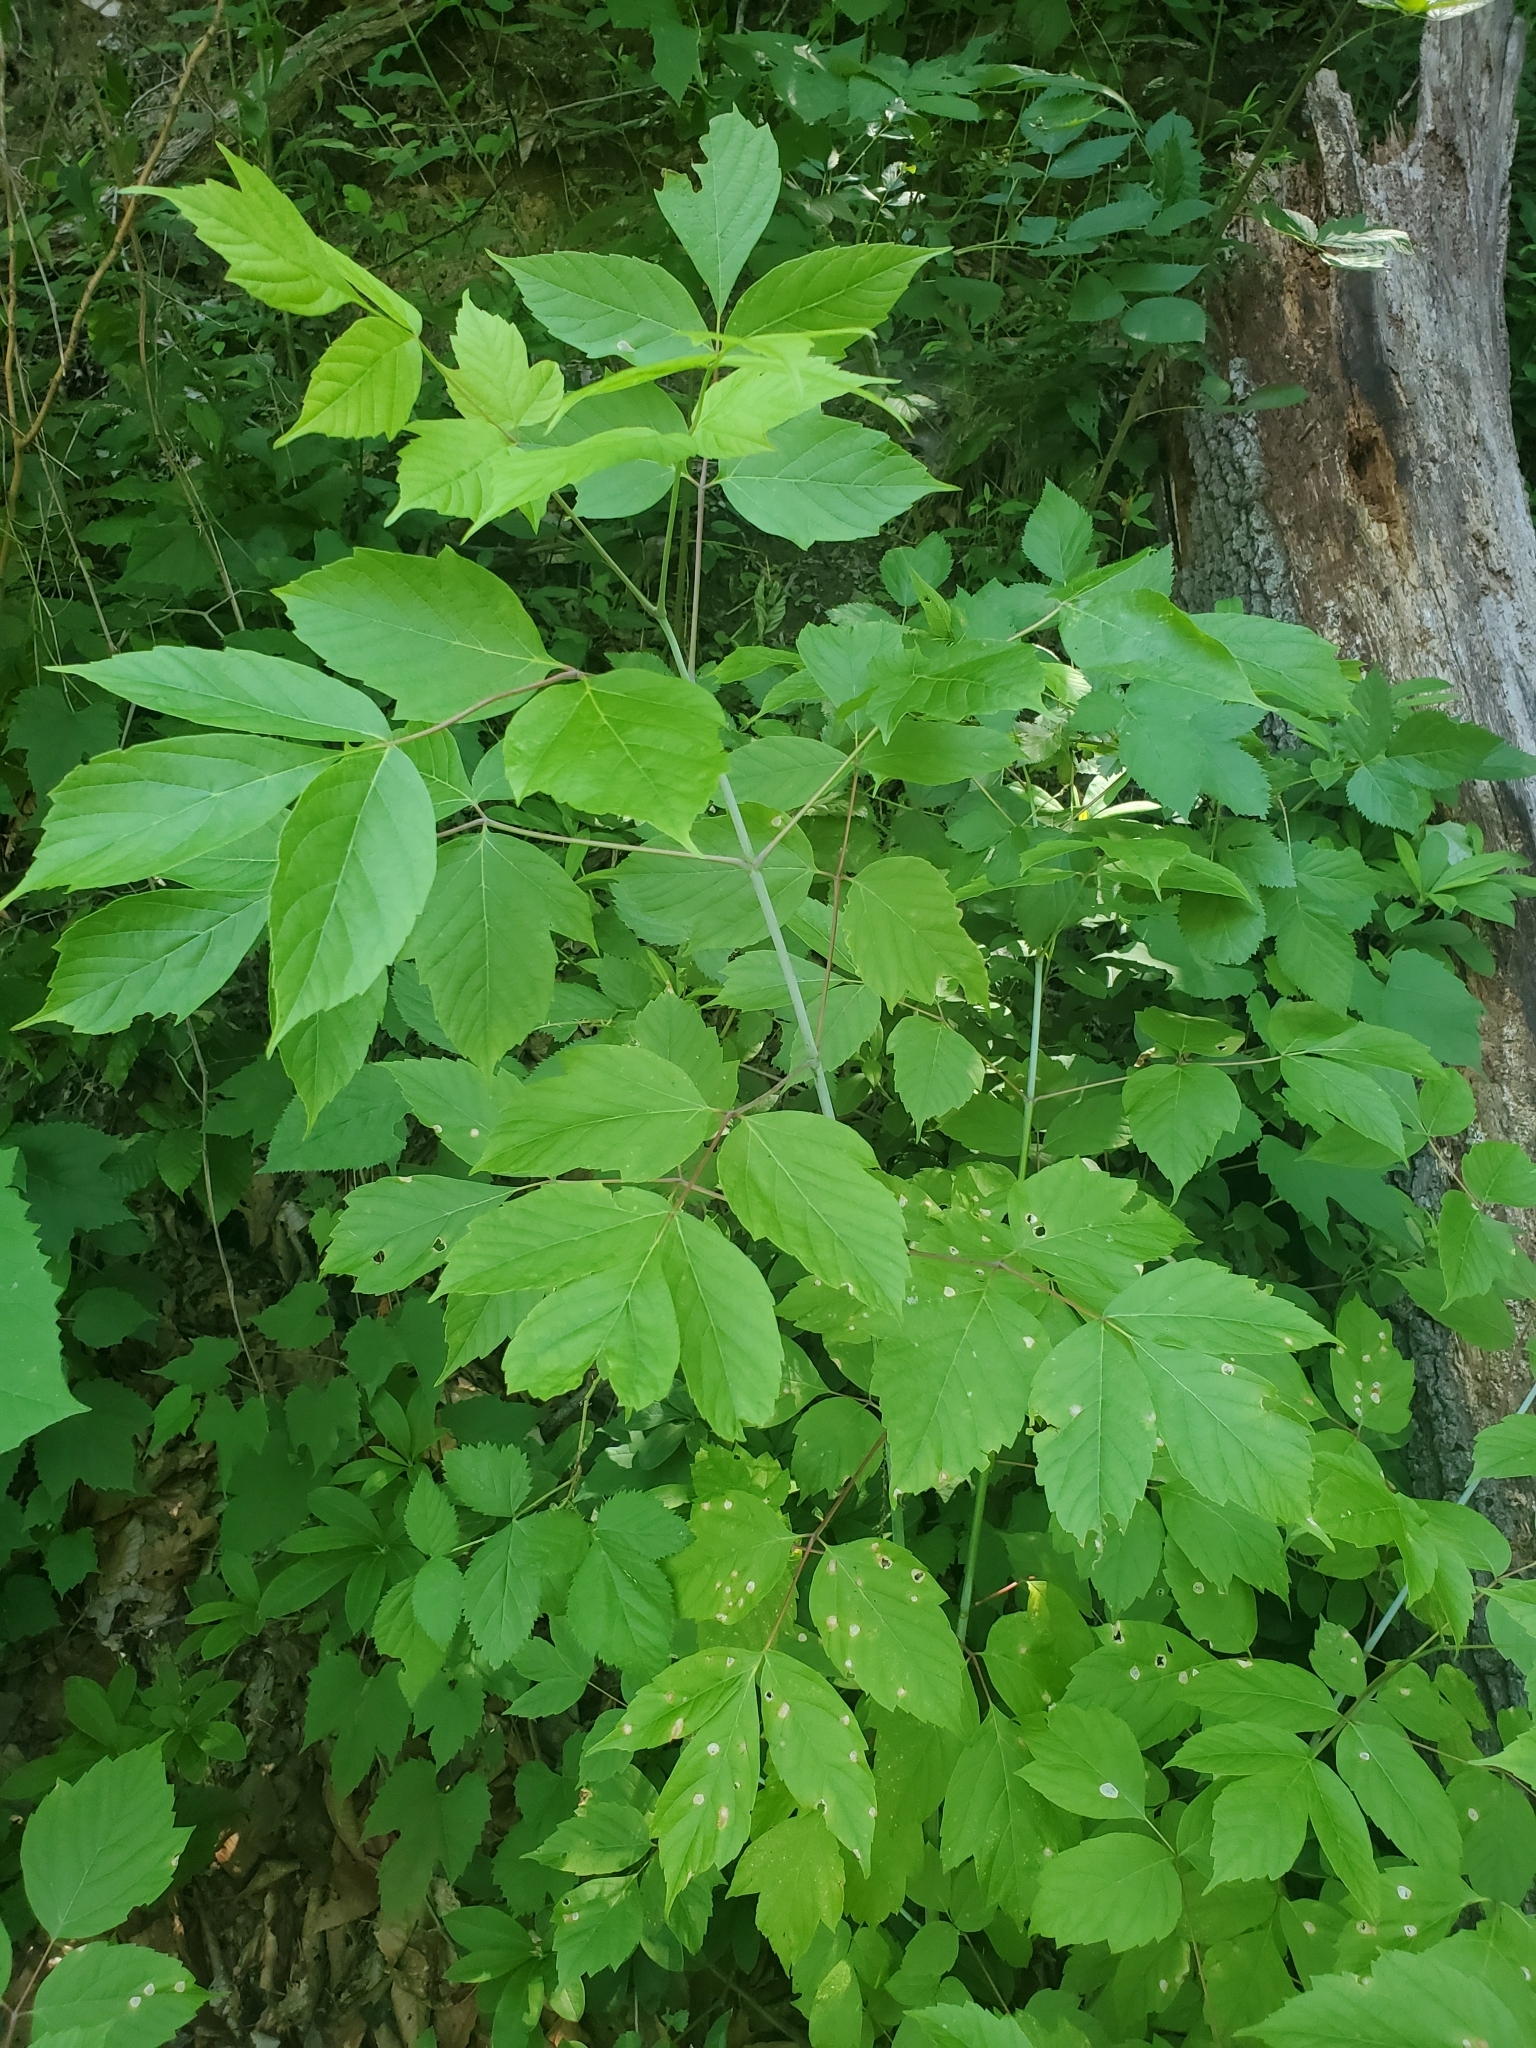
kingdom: Plantae
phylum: Tracheophyta
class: Magnoliopsida
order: Sapindales
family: Sapindaceae
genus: Acer
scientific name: Acer negundo
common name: Ashleaf maple
